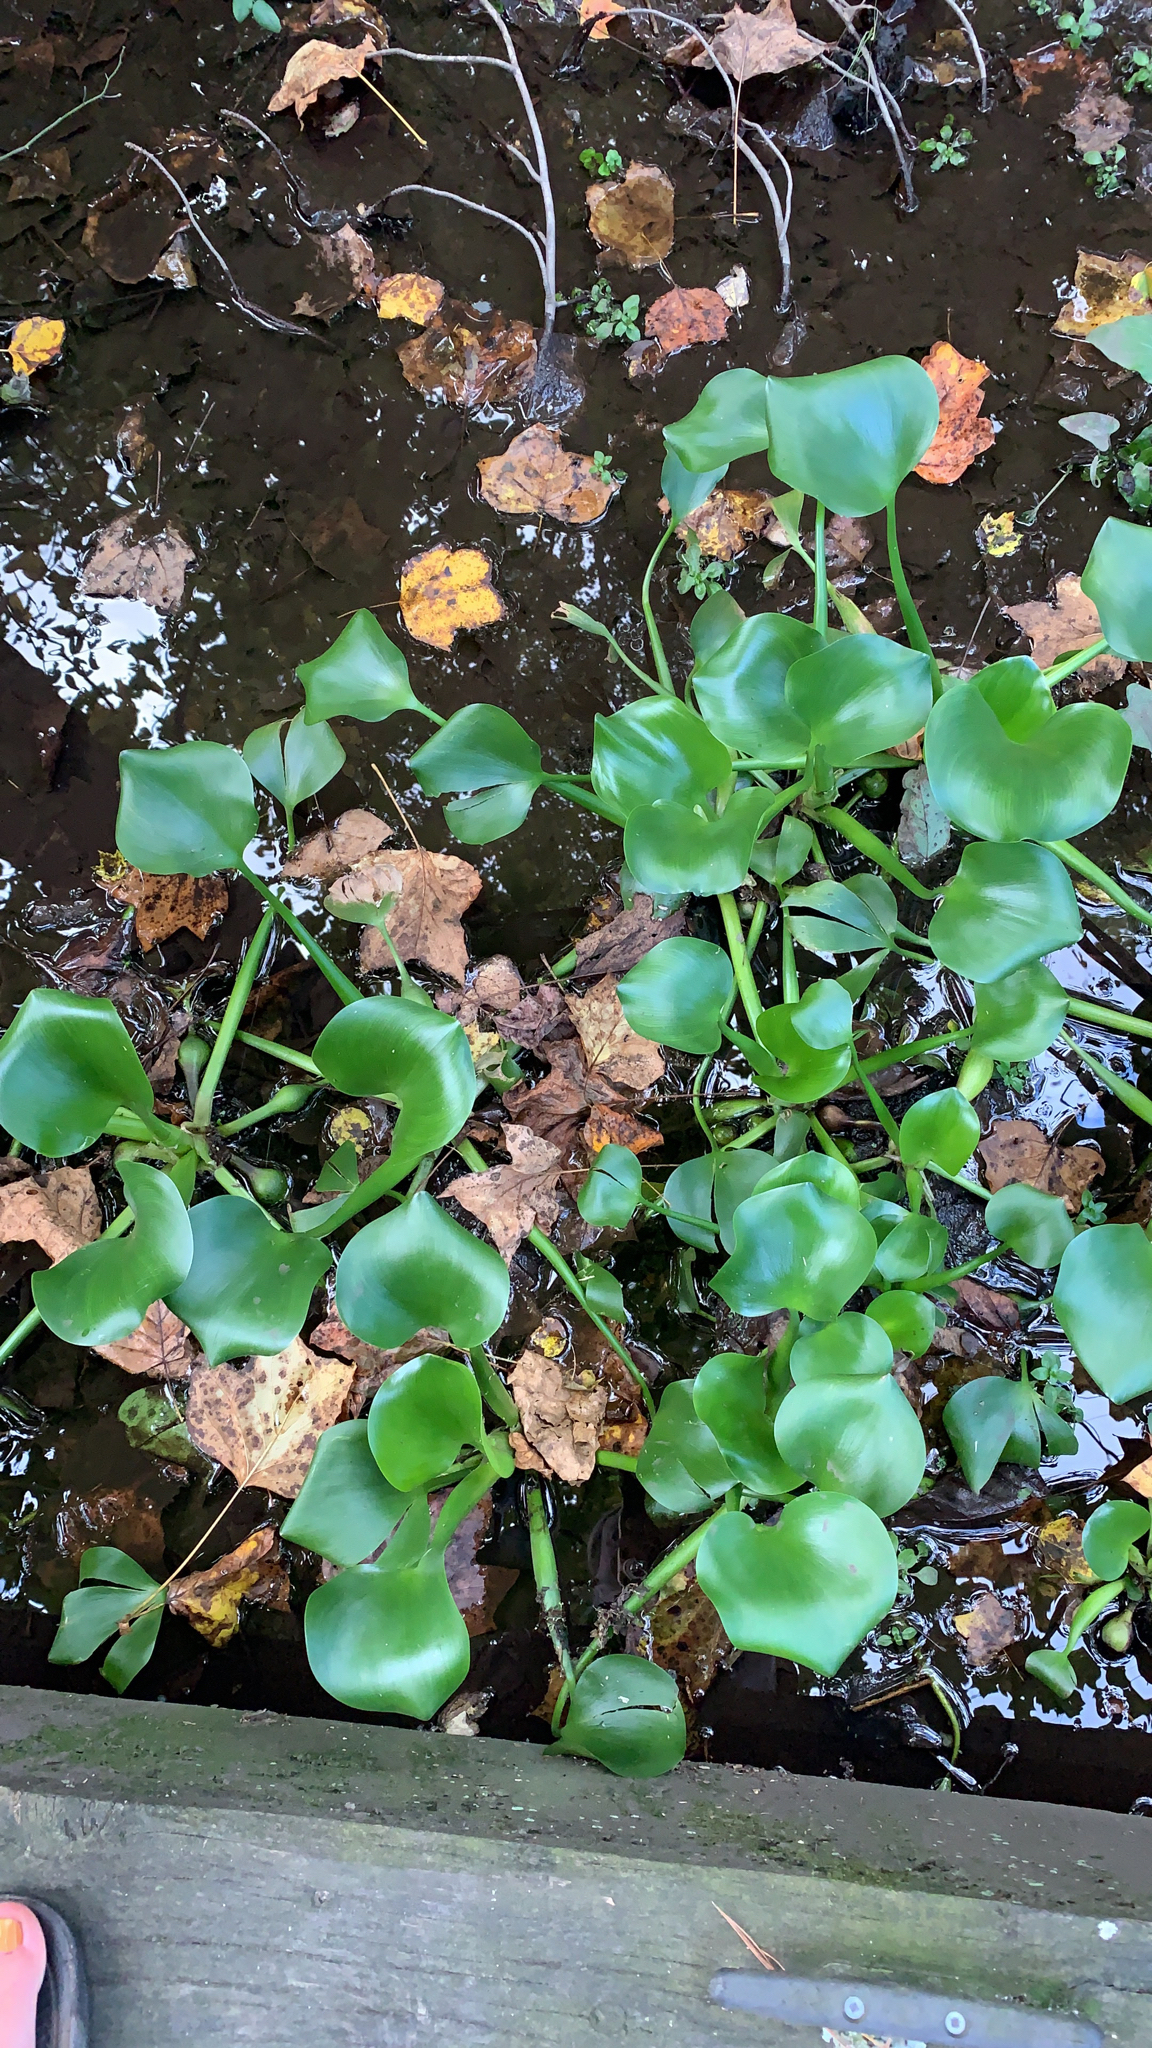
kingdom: Plantae
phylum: Tracheophyta
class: Liliopsida
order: Commelinales
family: Pontederiaceae
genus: Pontederia
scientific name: Pontederia crassipes
